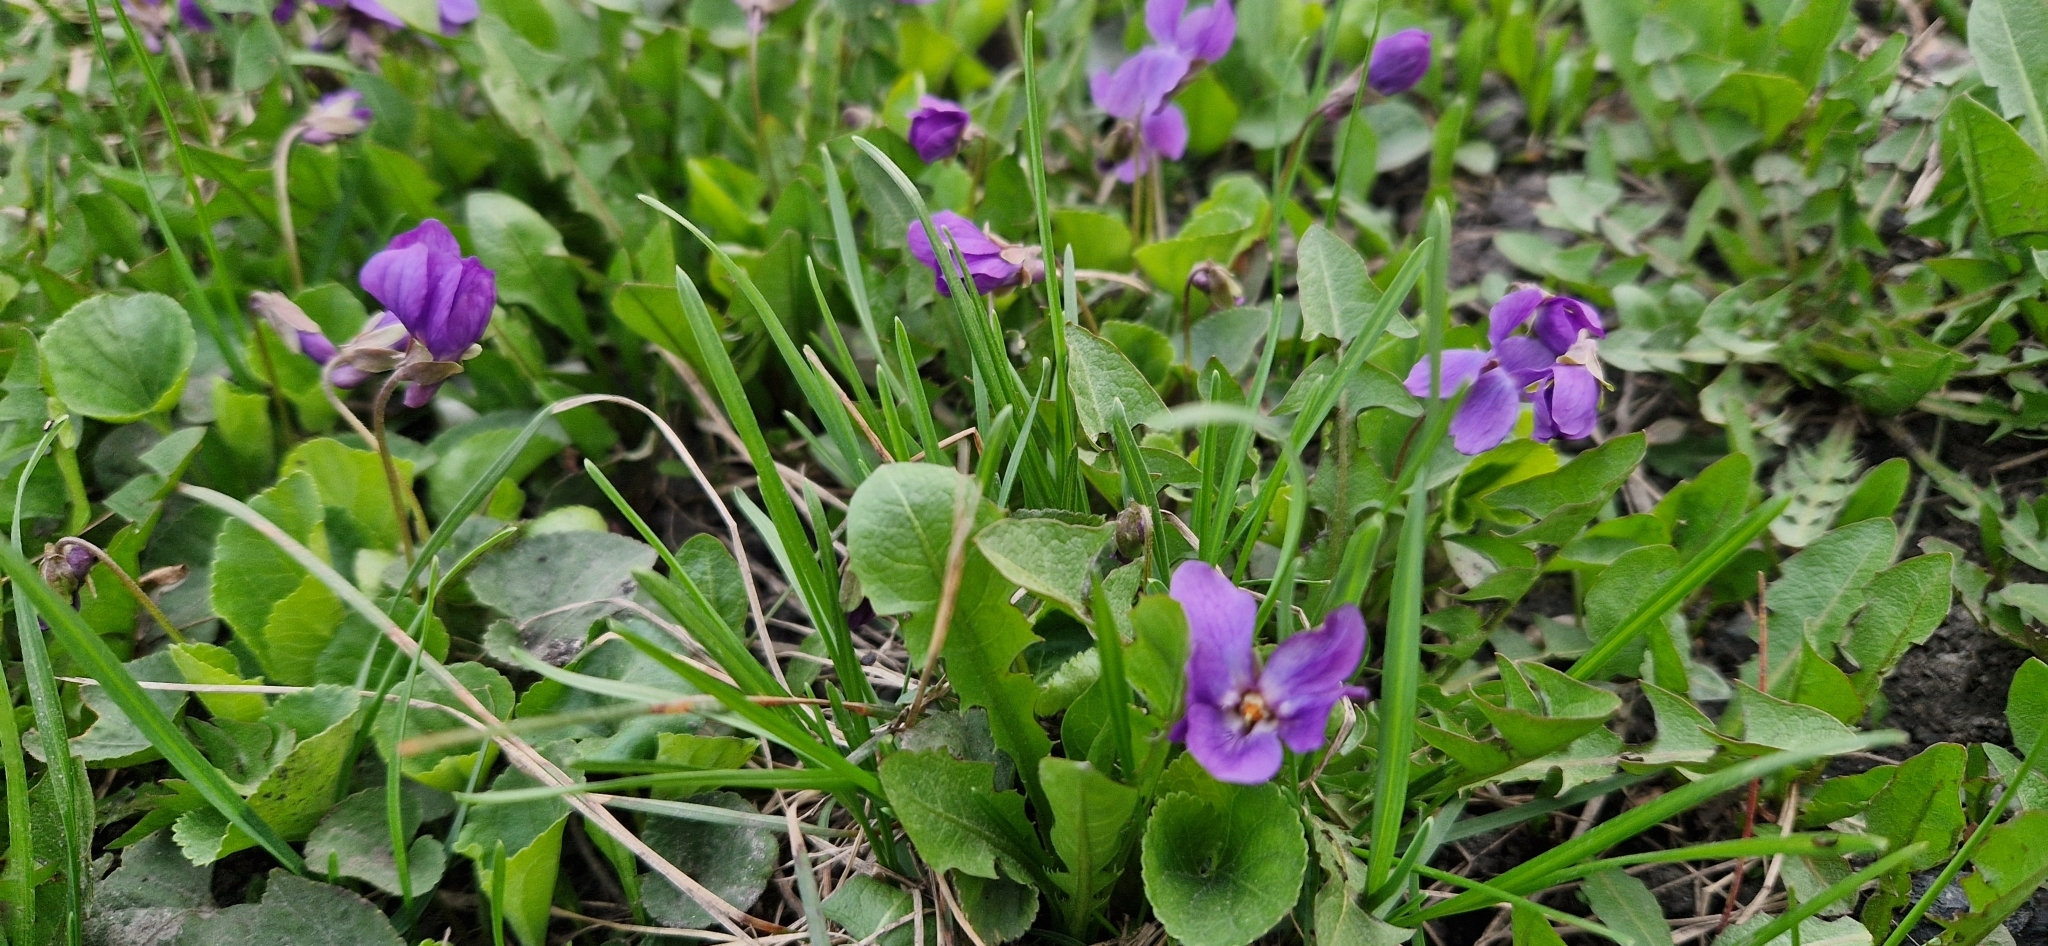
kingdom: Plantae
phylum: Tracheophyta
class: Magnoliopsida
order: Malpighiales
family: Violaceae
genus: Viola
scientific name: Viola odorata
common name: Sweet violet
